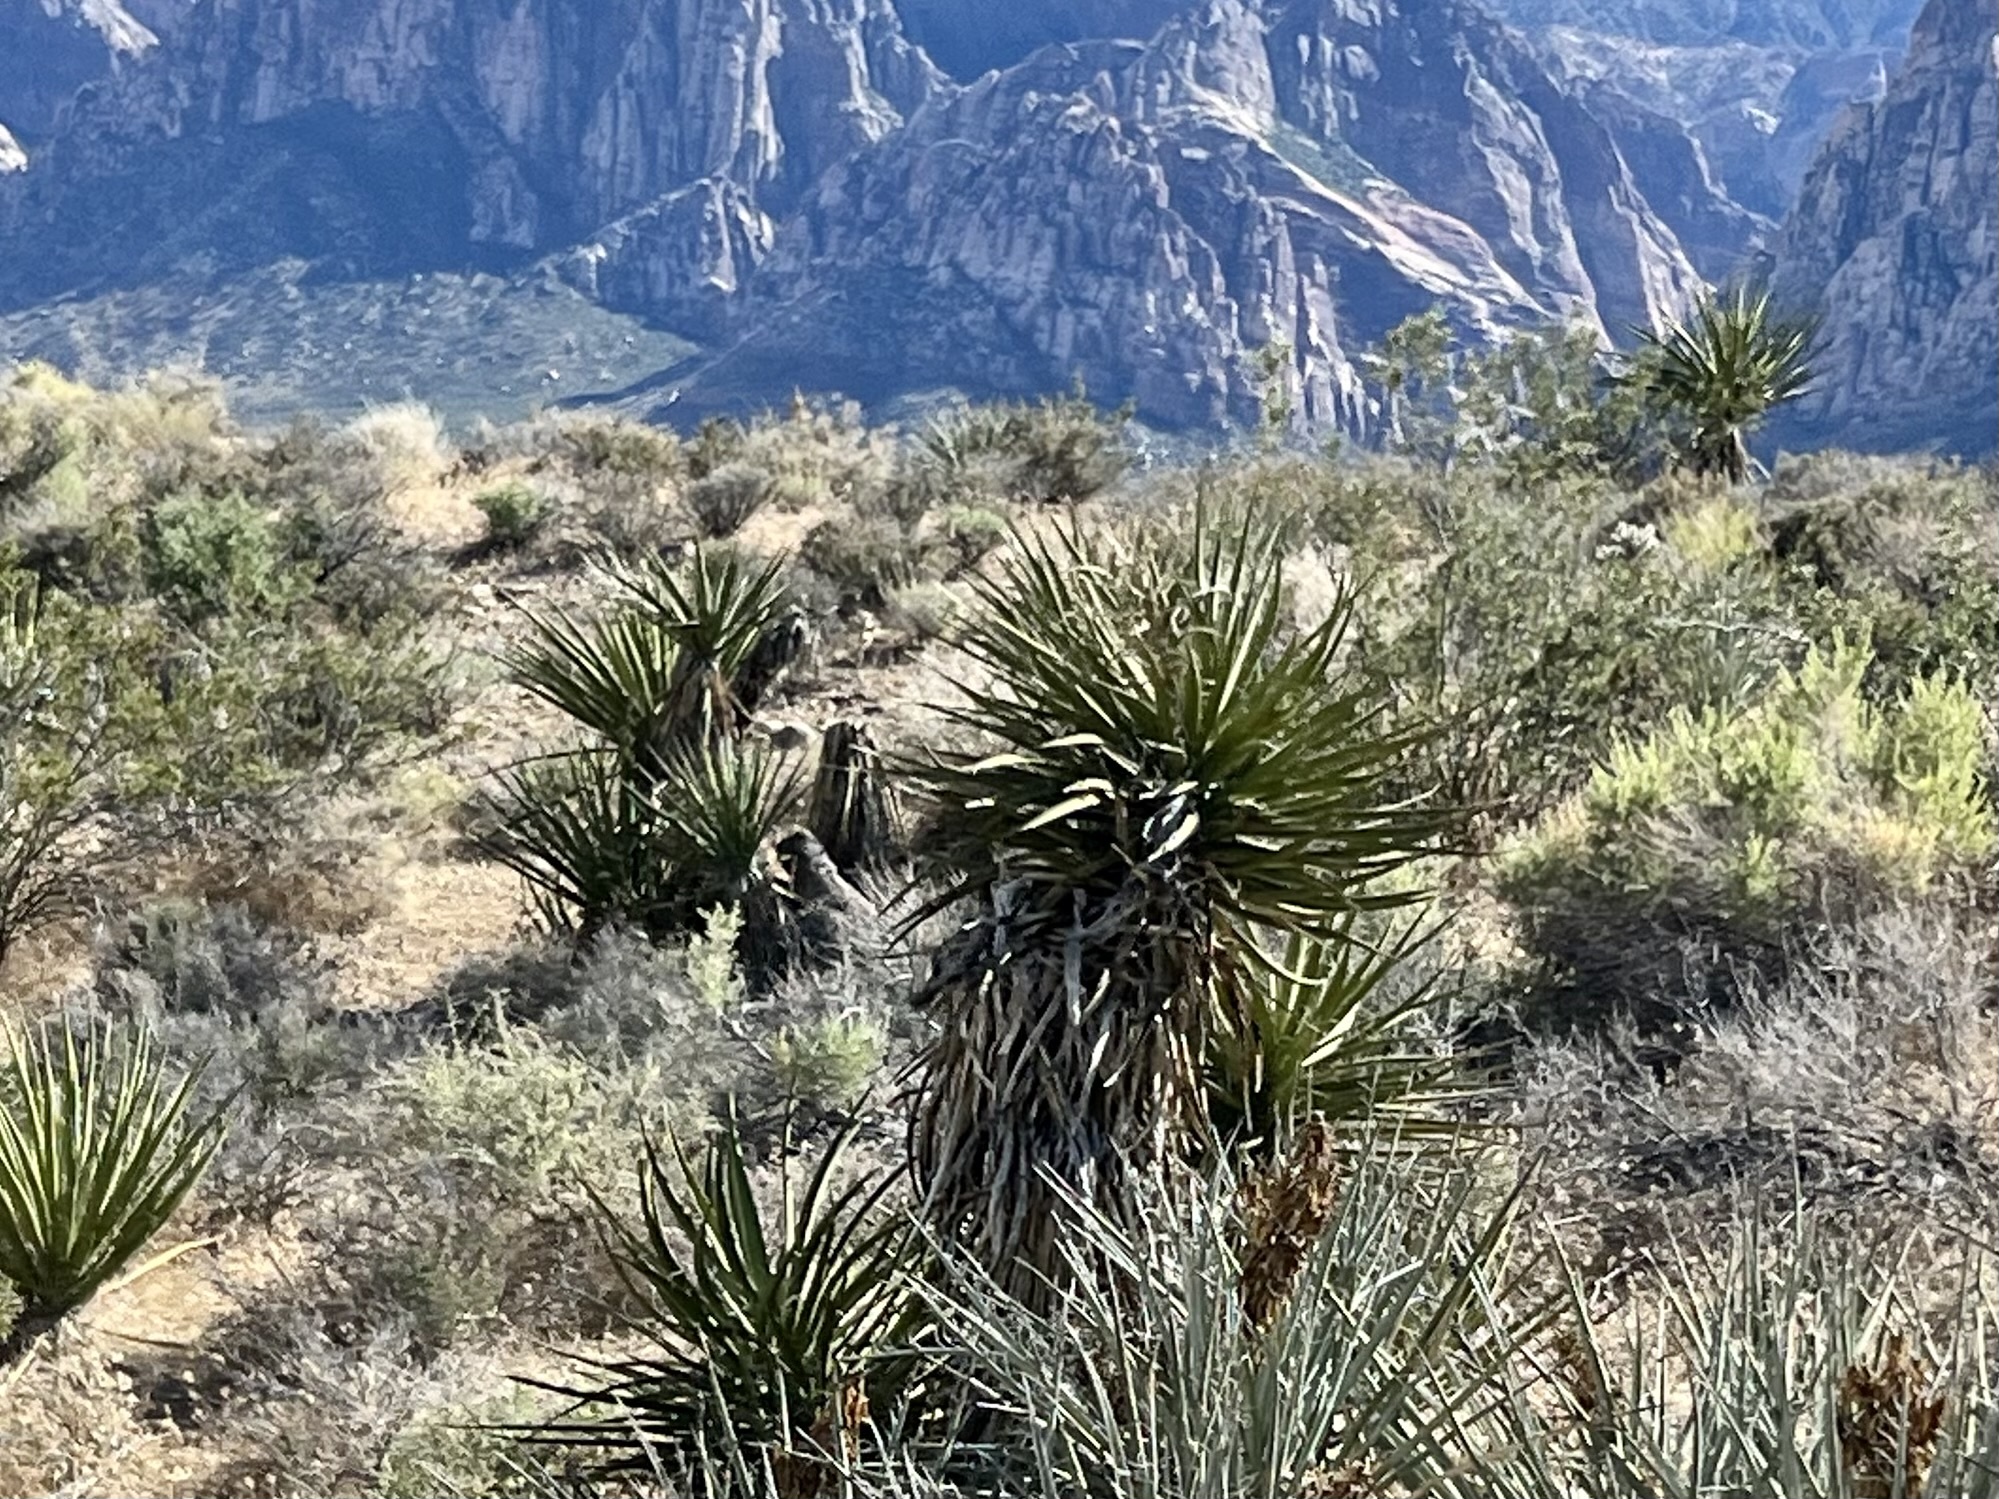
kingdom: Plantae
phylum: Tracheophyta
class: Liliopsida
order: Asparagales
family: Asparagaceae
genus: Yucca
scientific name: Yucca schidigera
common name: Mojave yucca
